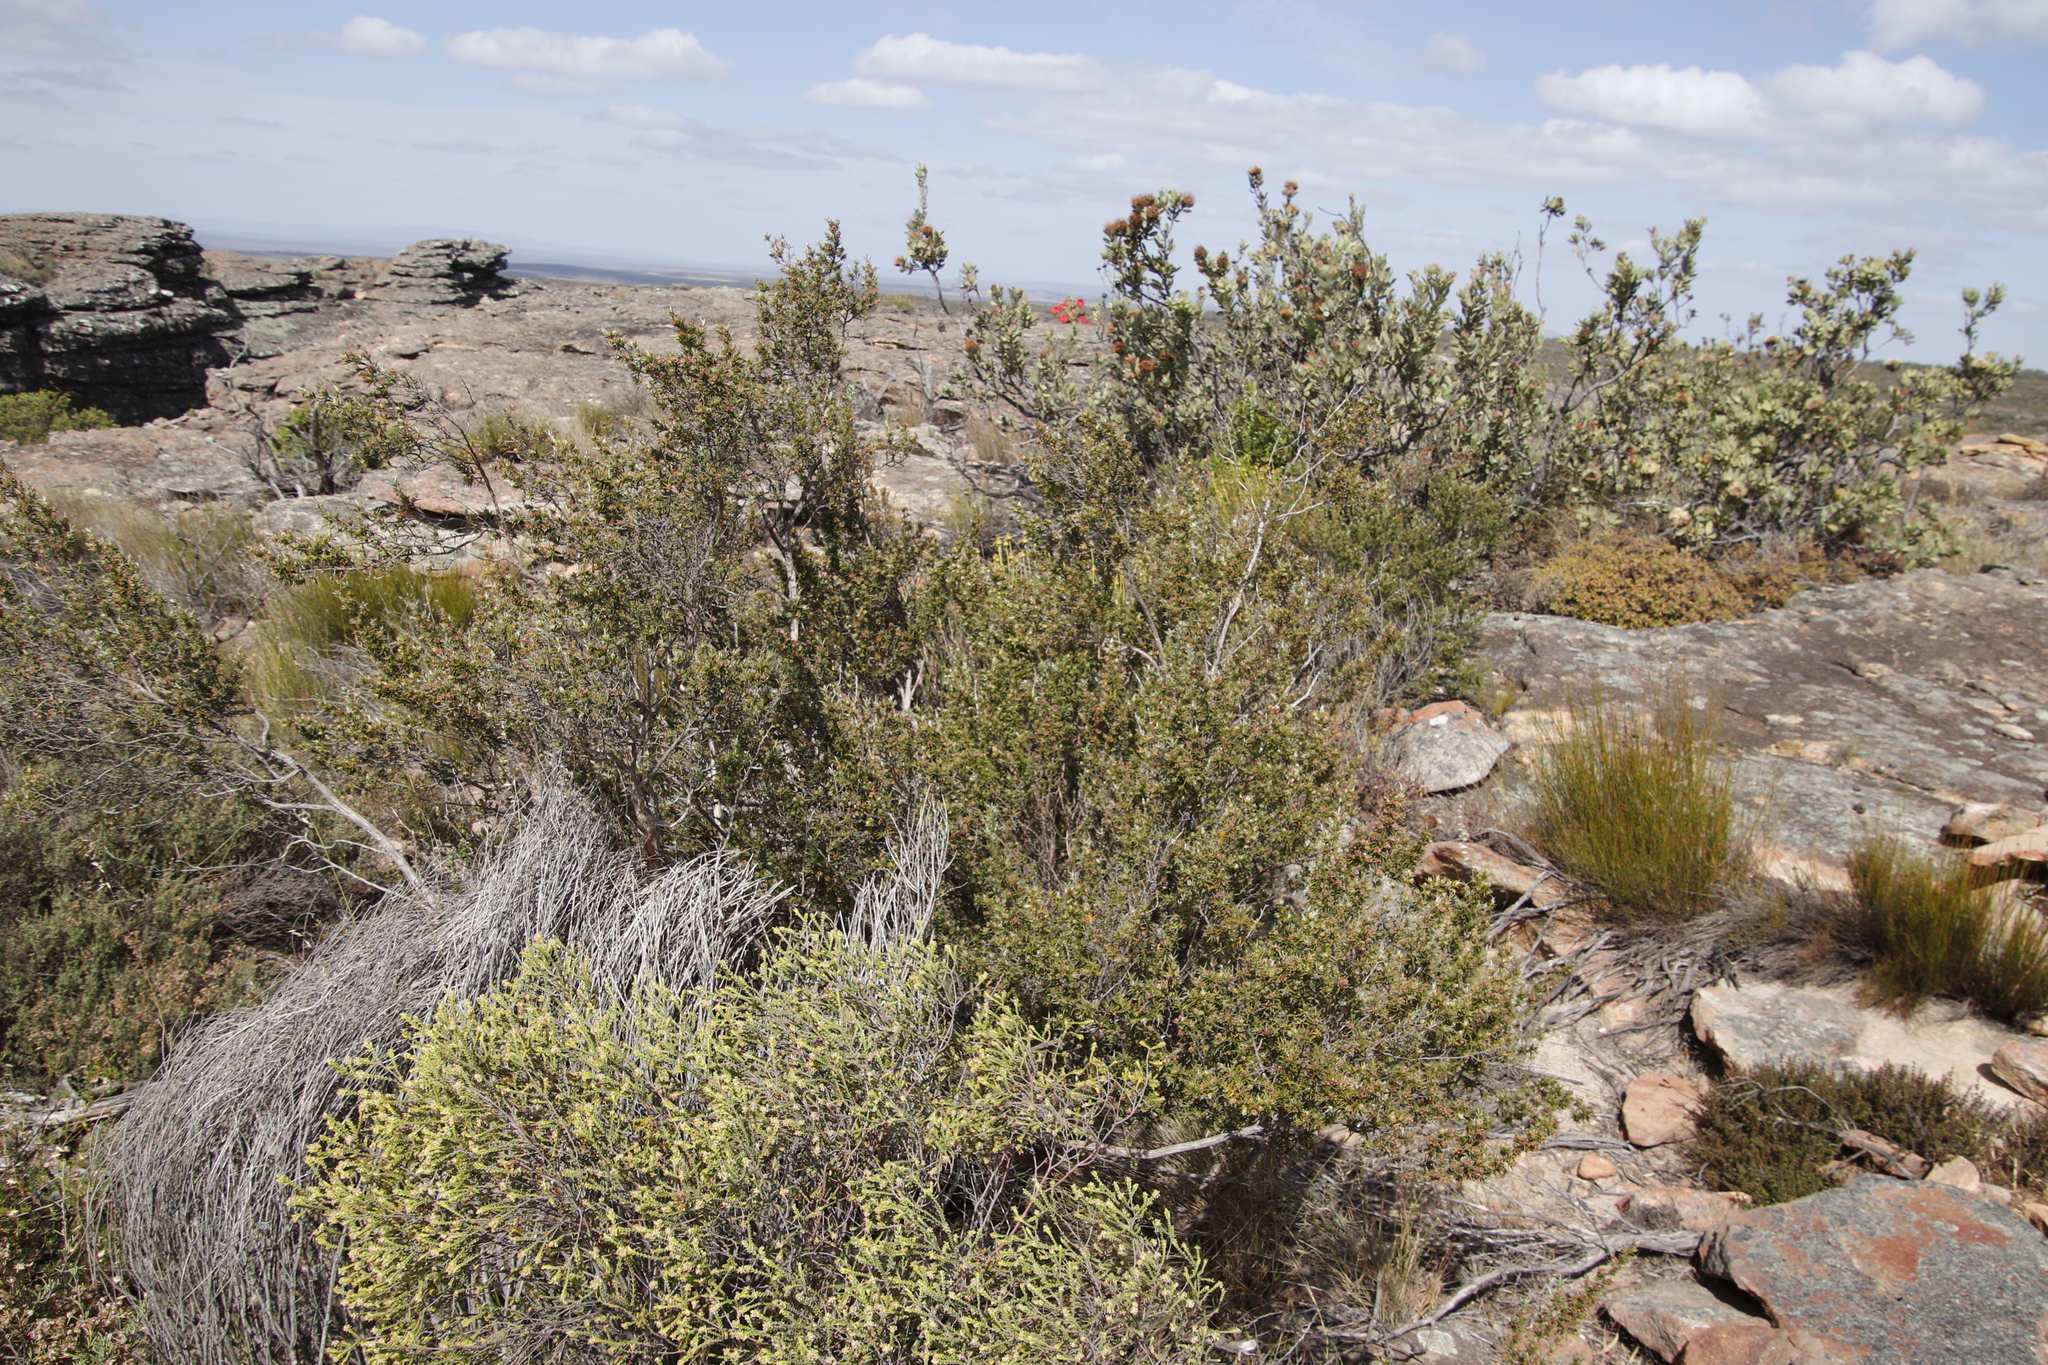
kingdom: Plantae
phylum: Tracheophyta
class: Magnoliopsida
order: Rosales
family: Rosaceae
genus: Cliffortia
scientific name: Cliffortia ruscifolia
